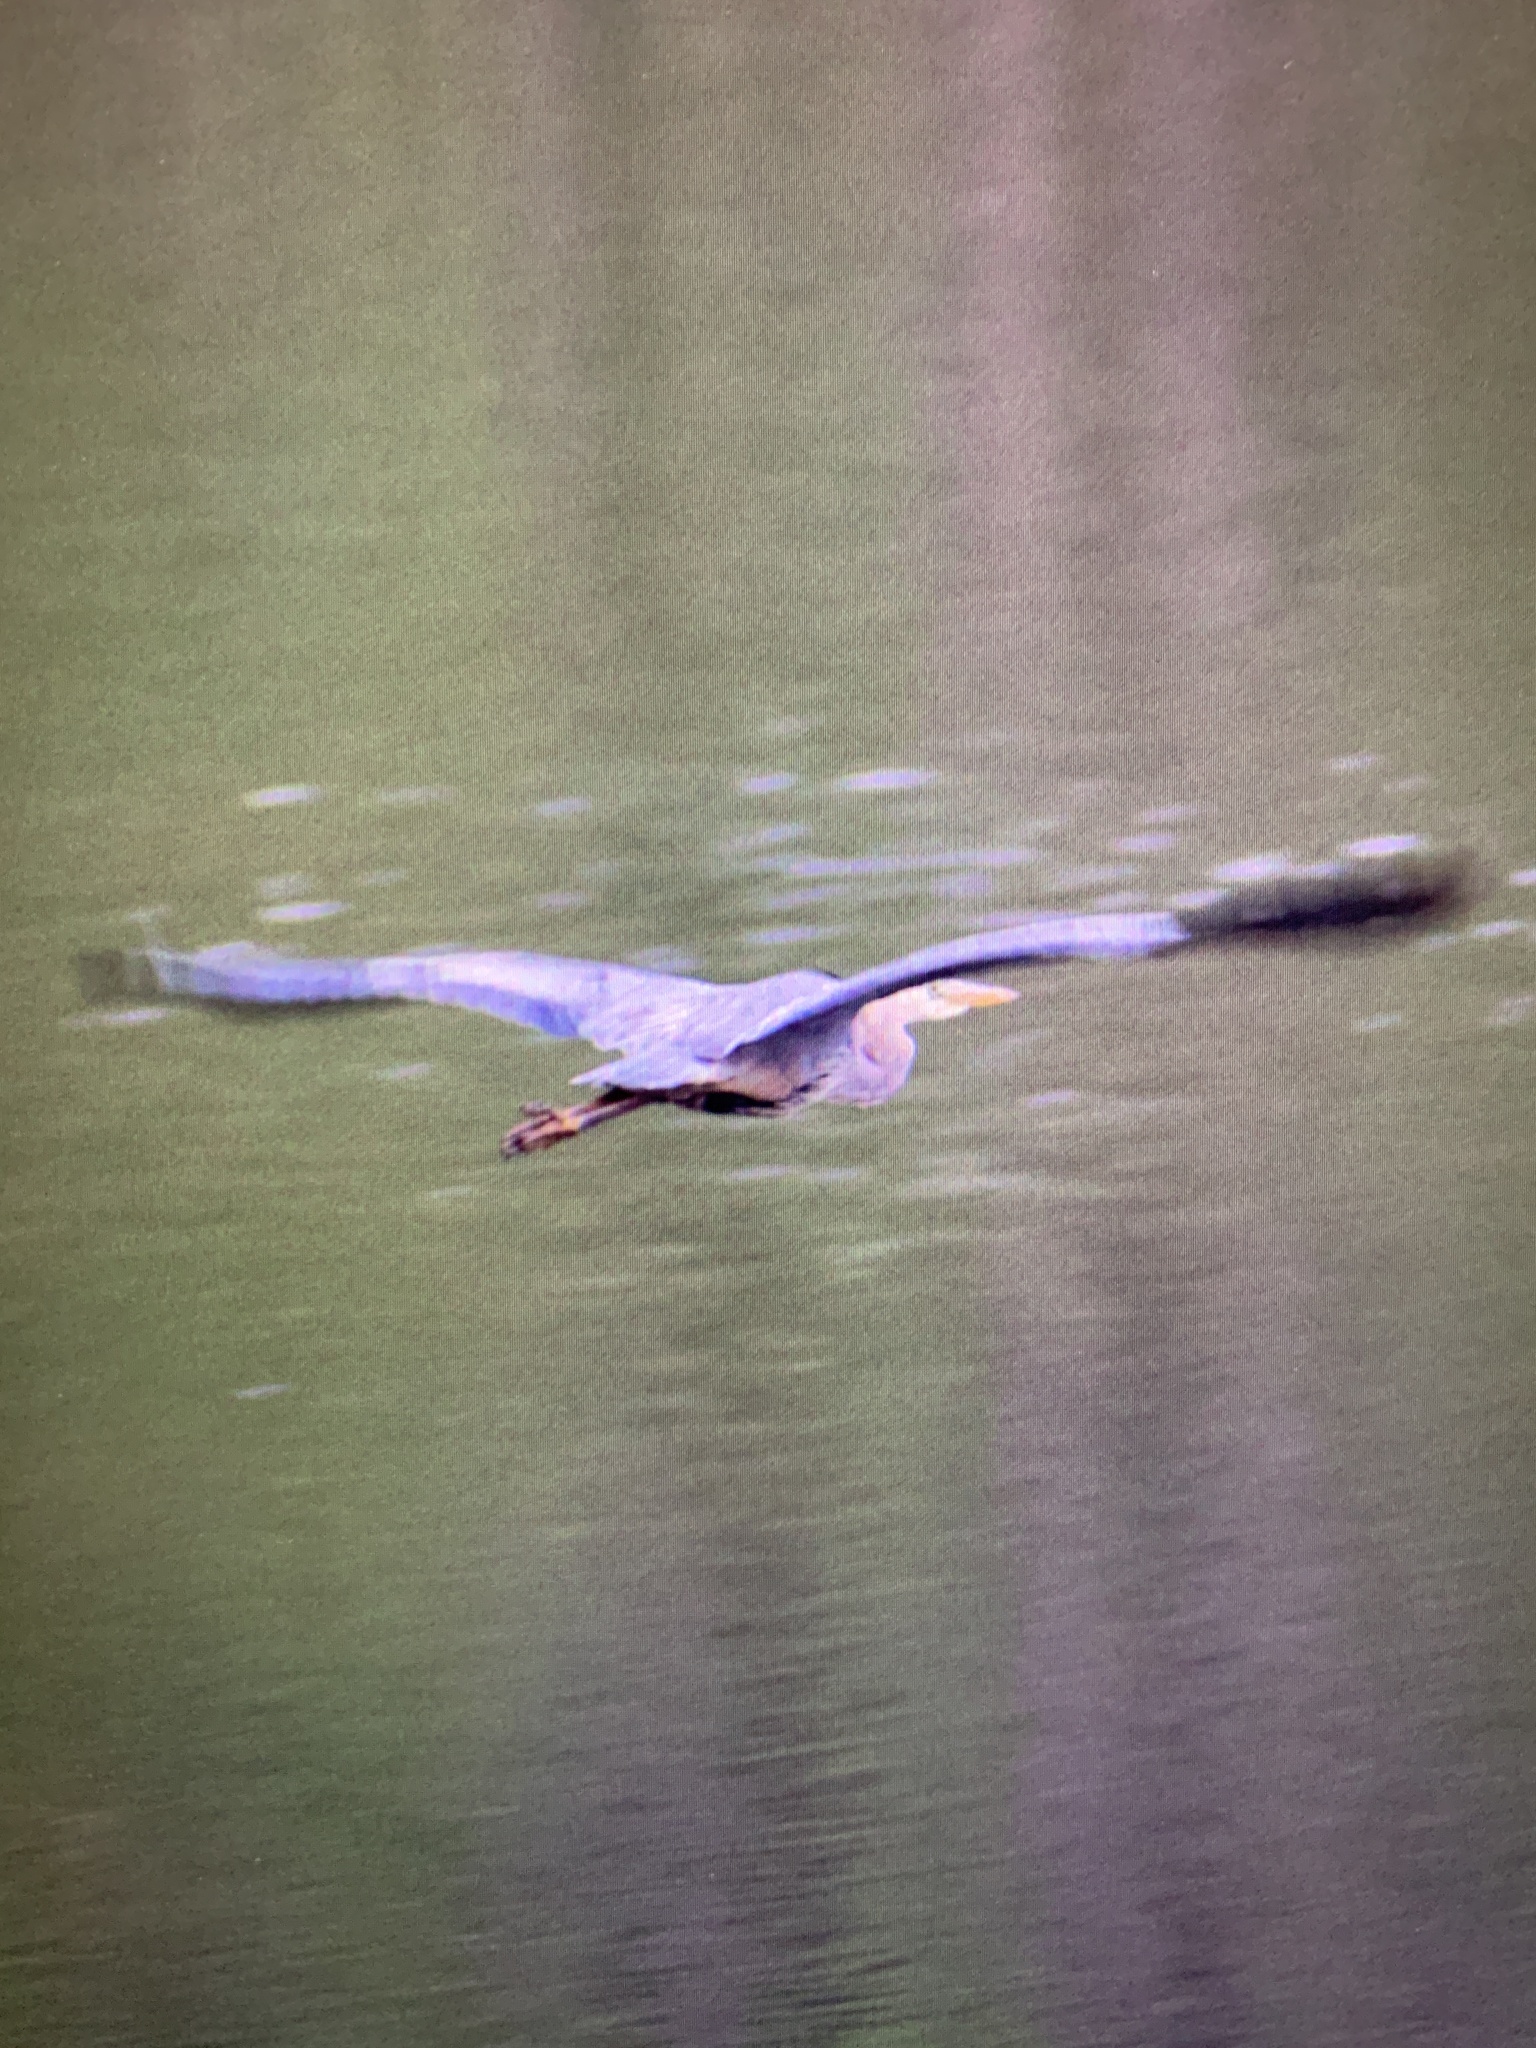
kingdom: Animalia
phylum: Chordata
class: Aves
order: Pelecaniformes
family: Ardeidae
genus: Ardea
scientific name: Ardea herodias
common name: Great blue heron
